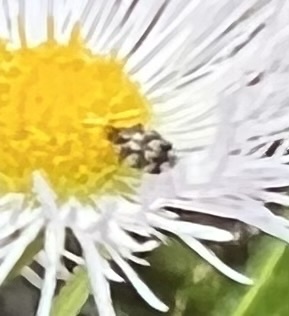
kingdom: Animalia
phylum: Arthropoda
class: Insecta
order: Coleoptera
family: Dermestidae
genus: Anthrenus
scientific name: Anthrenus verbasci
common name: Varied carpet beetle
